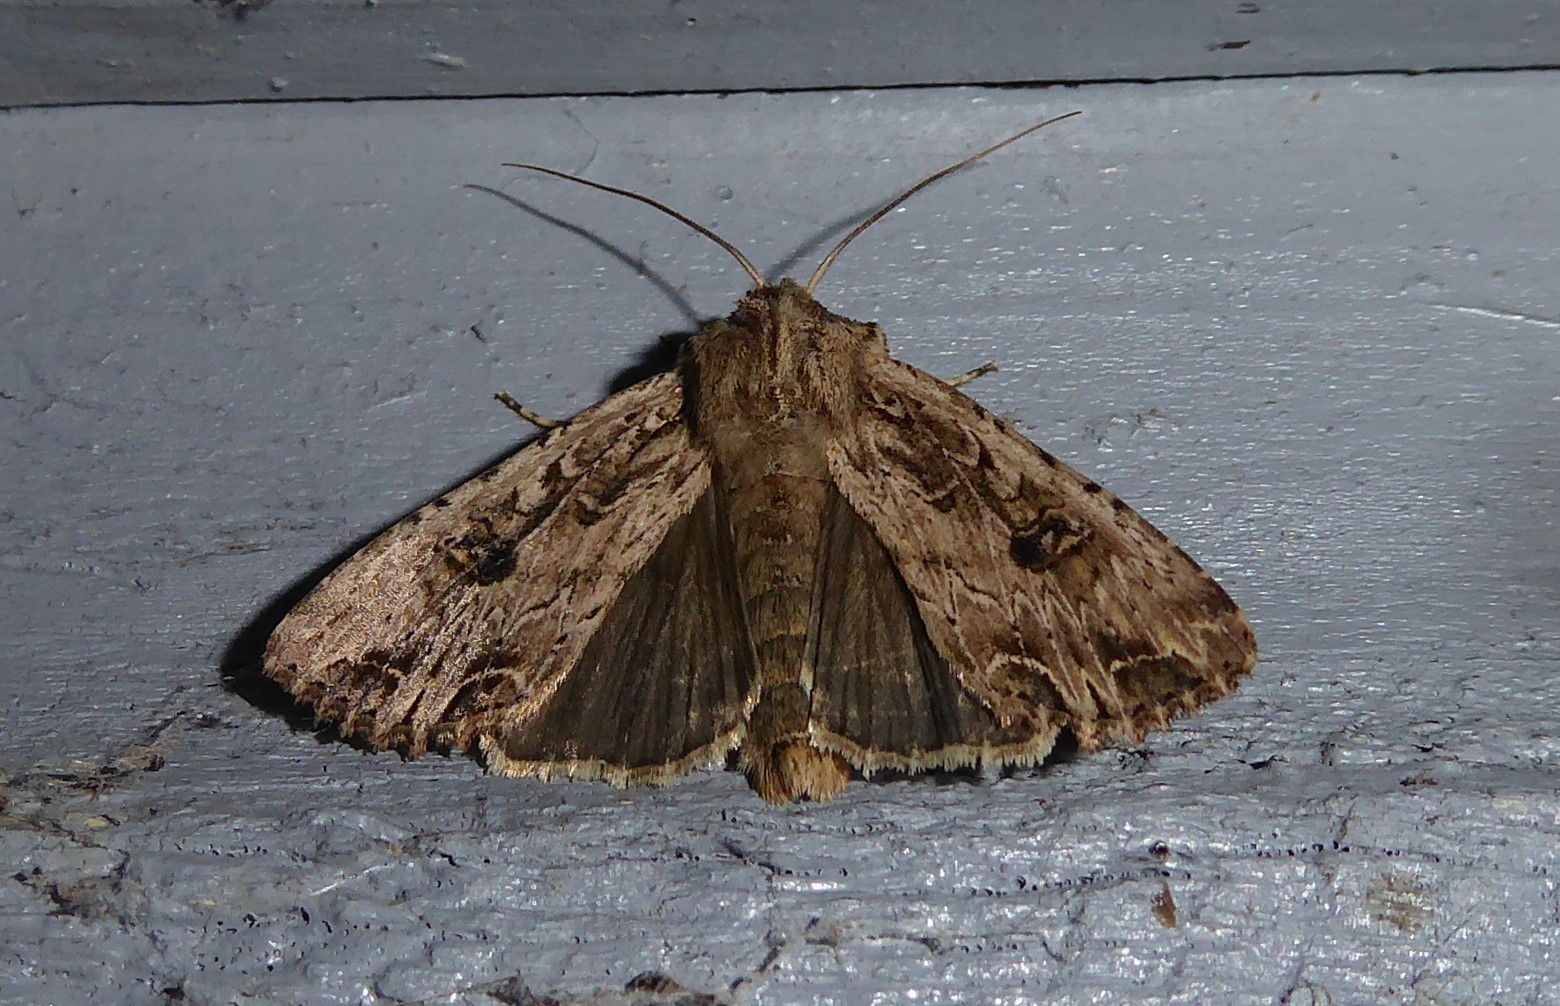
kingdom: Animalia
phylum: Arthropoda
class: Insecta
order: Lepidoptera
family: Noctuidae
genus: Ichneutica
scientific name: Ichneutica lignana
